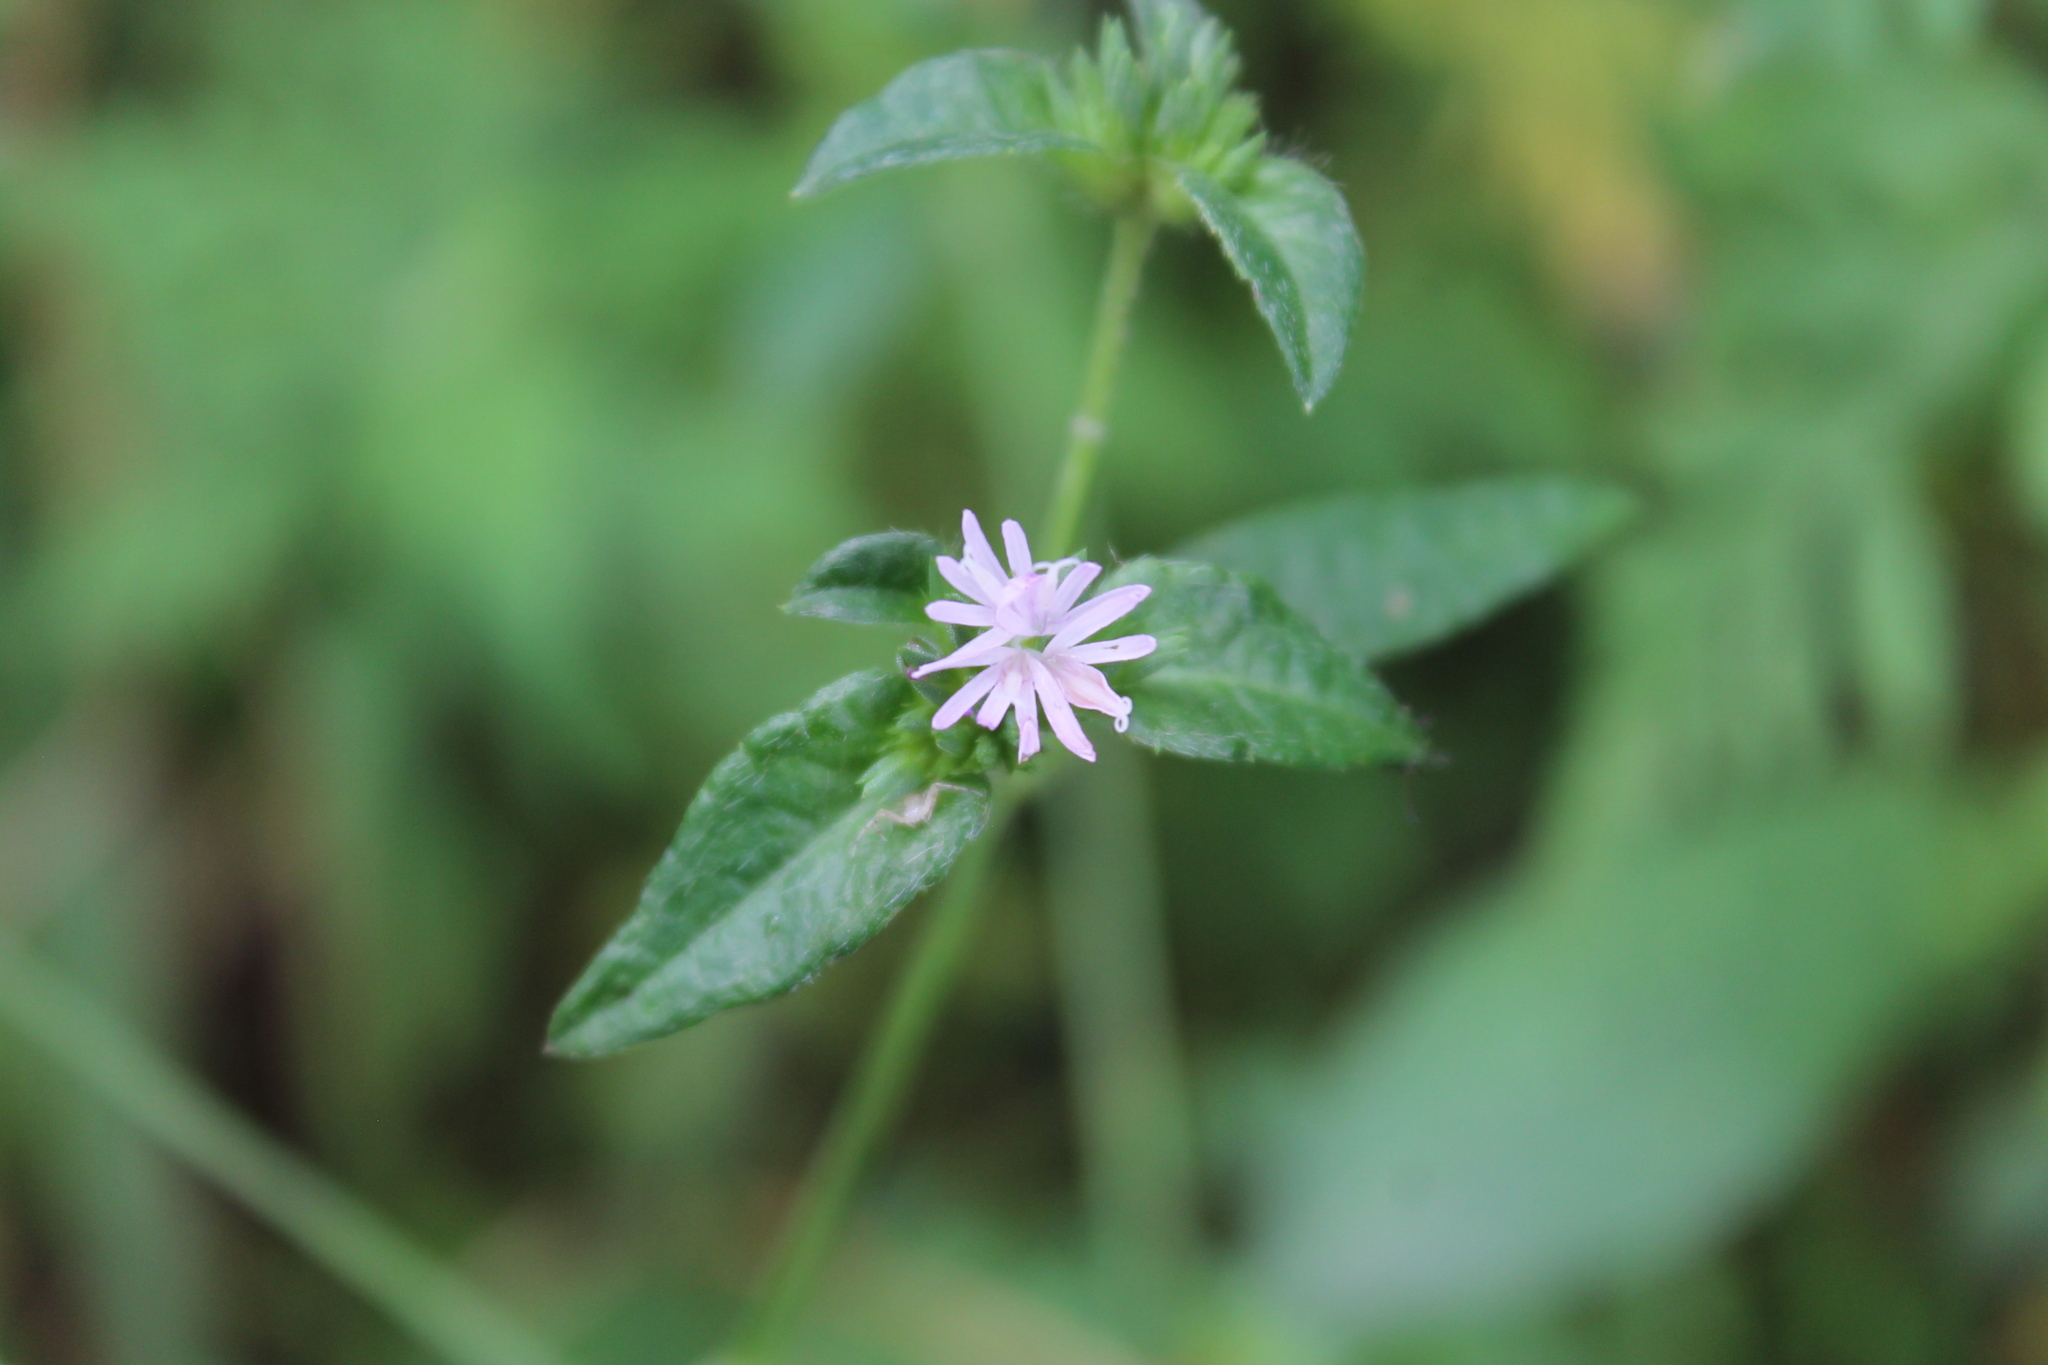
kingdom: Plantae
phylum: Tracheophyta
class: Magnoliopsida
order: Asterales
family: Asteraceae
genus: Elephantopus
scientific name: Elephantopus carolinianus
